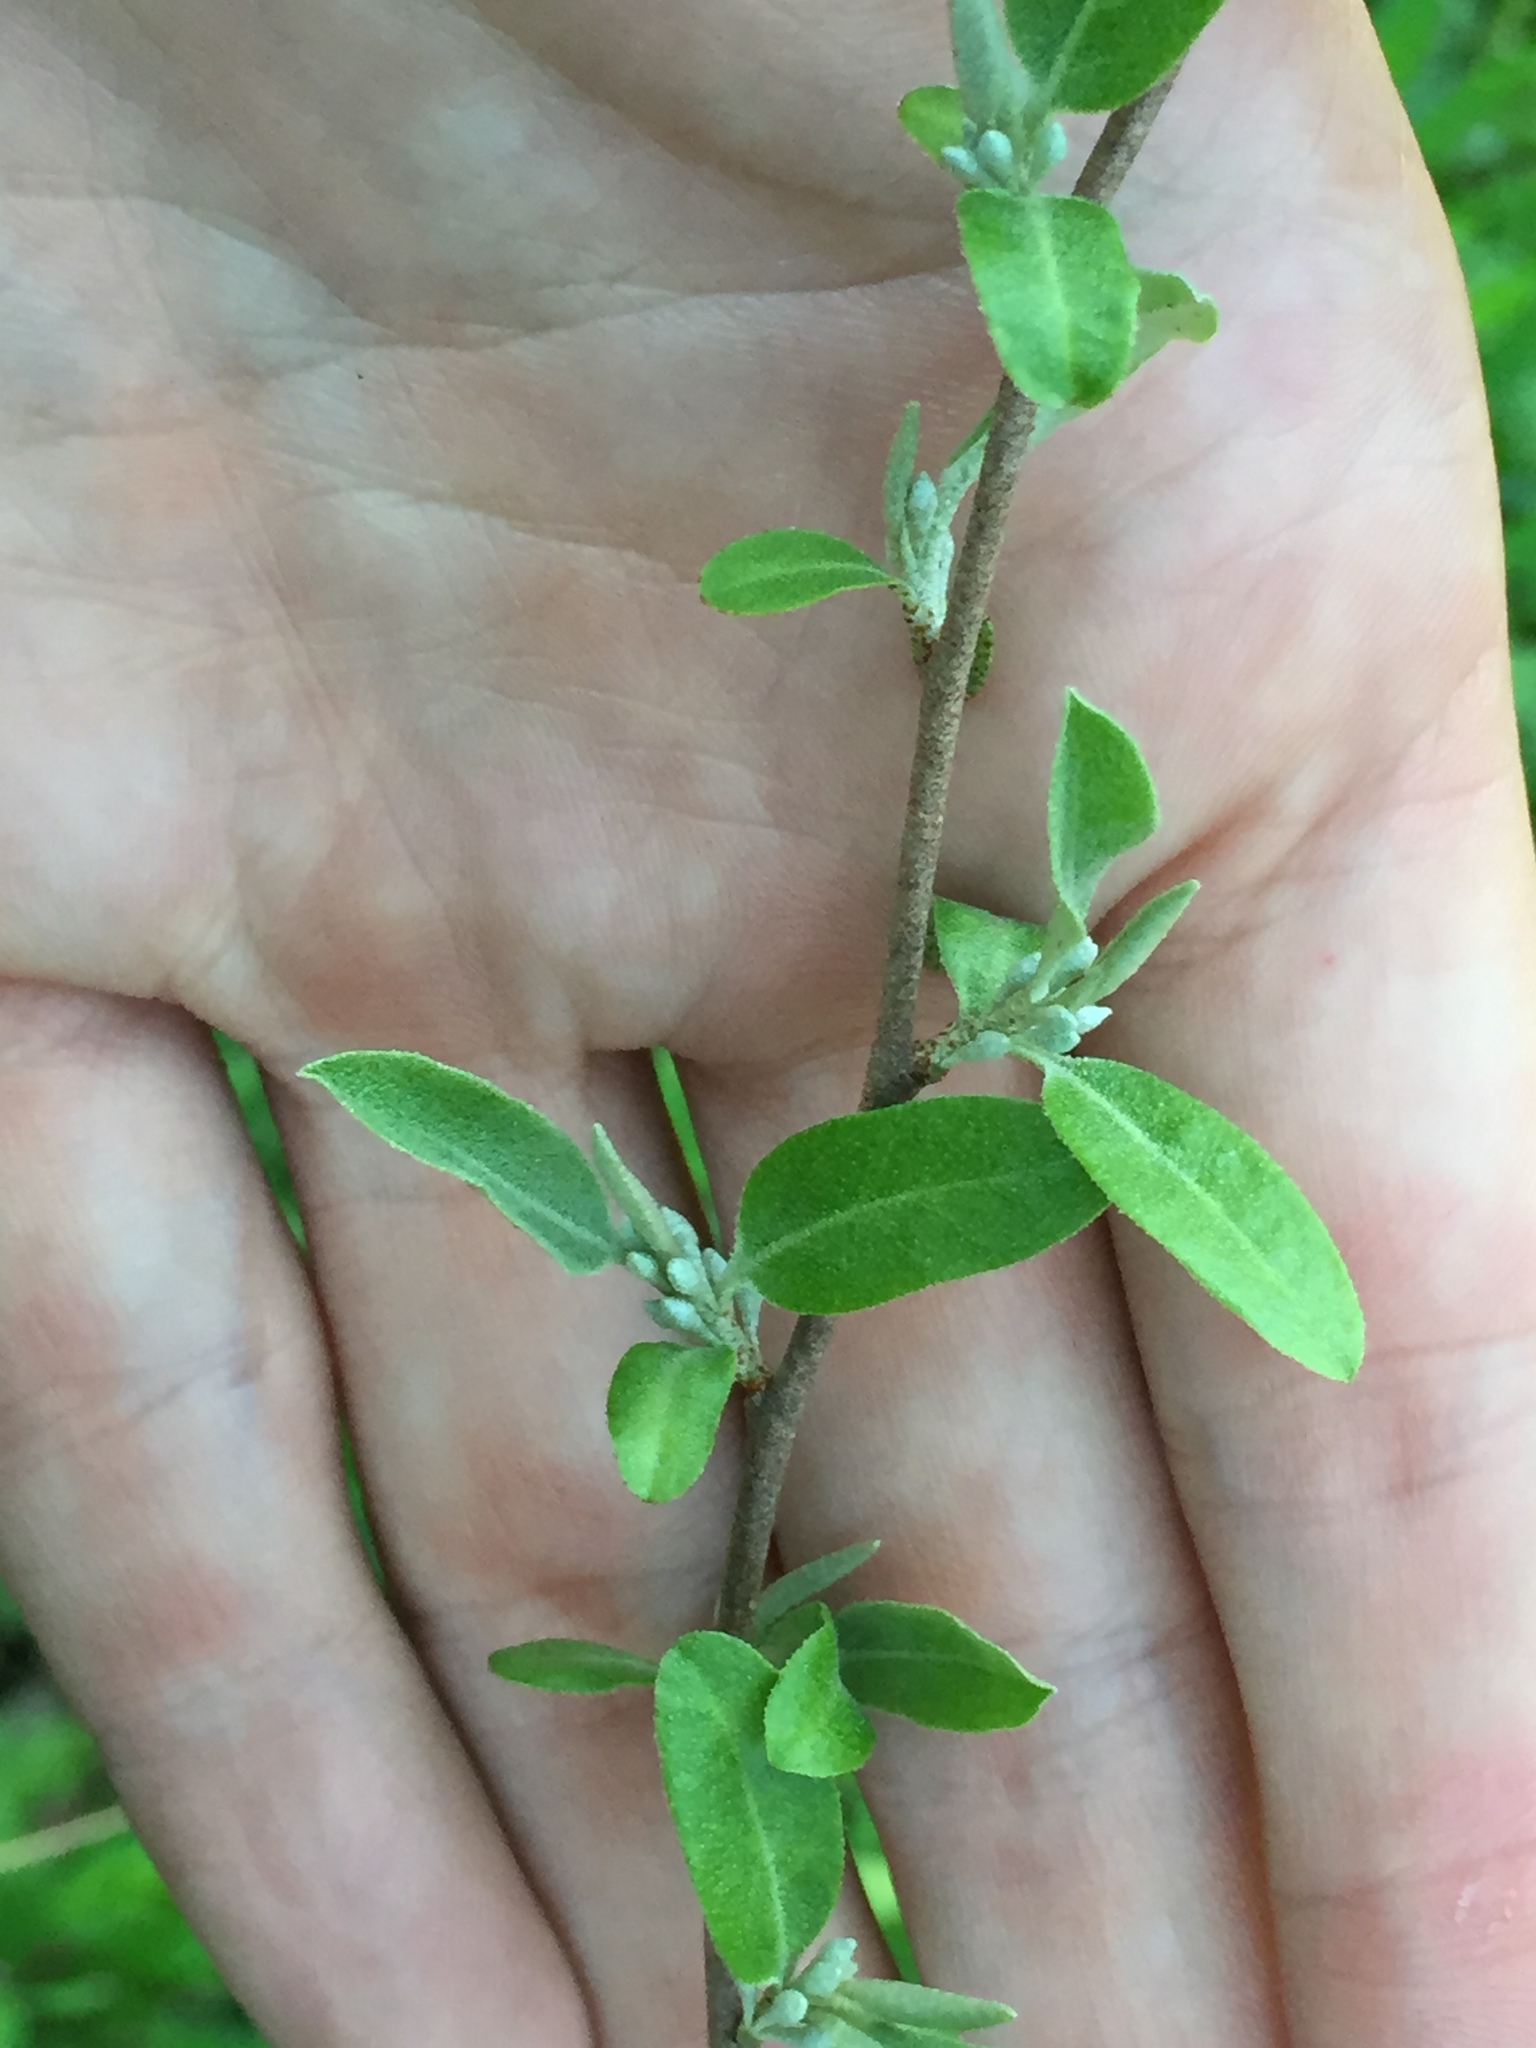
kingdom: Plantae
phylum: Tracheophyta
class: Magnoliopsida
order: Rosales
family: Elaeagnaceae
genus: Elaeagnus
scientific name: Elaeagnus umbellata
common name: Autumn olive
